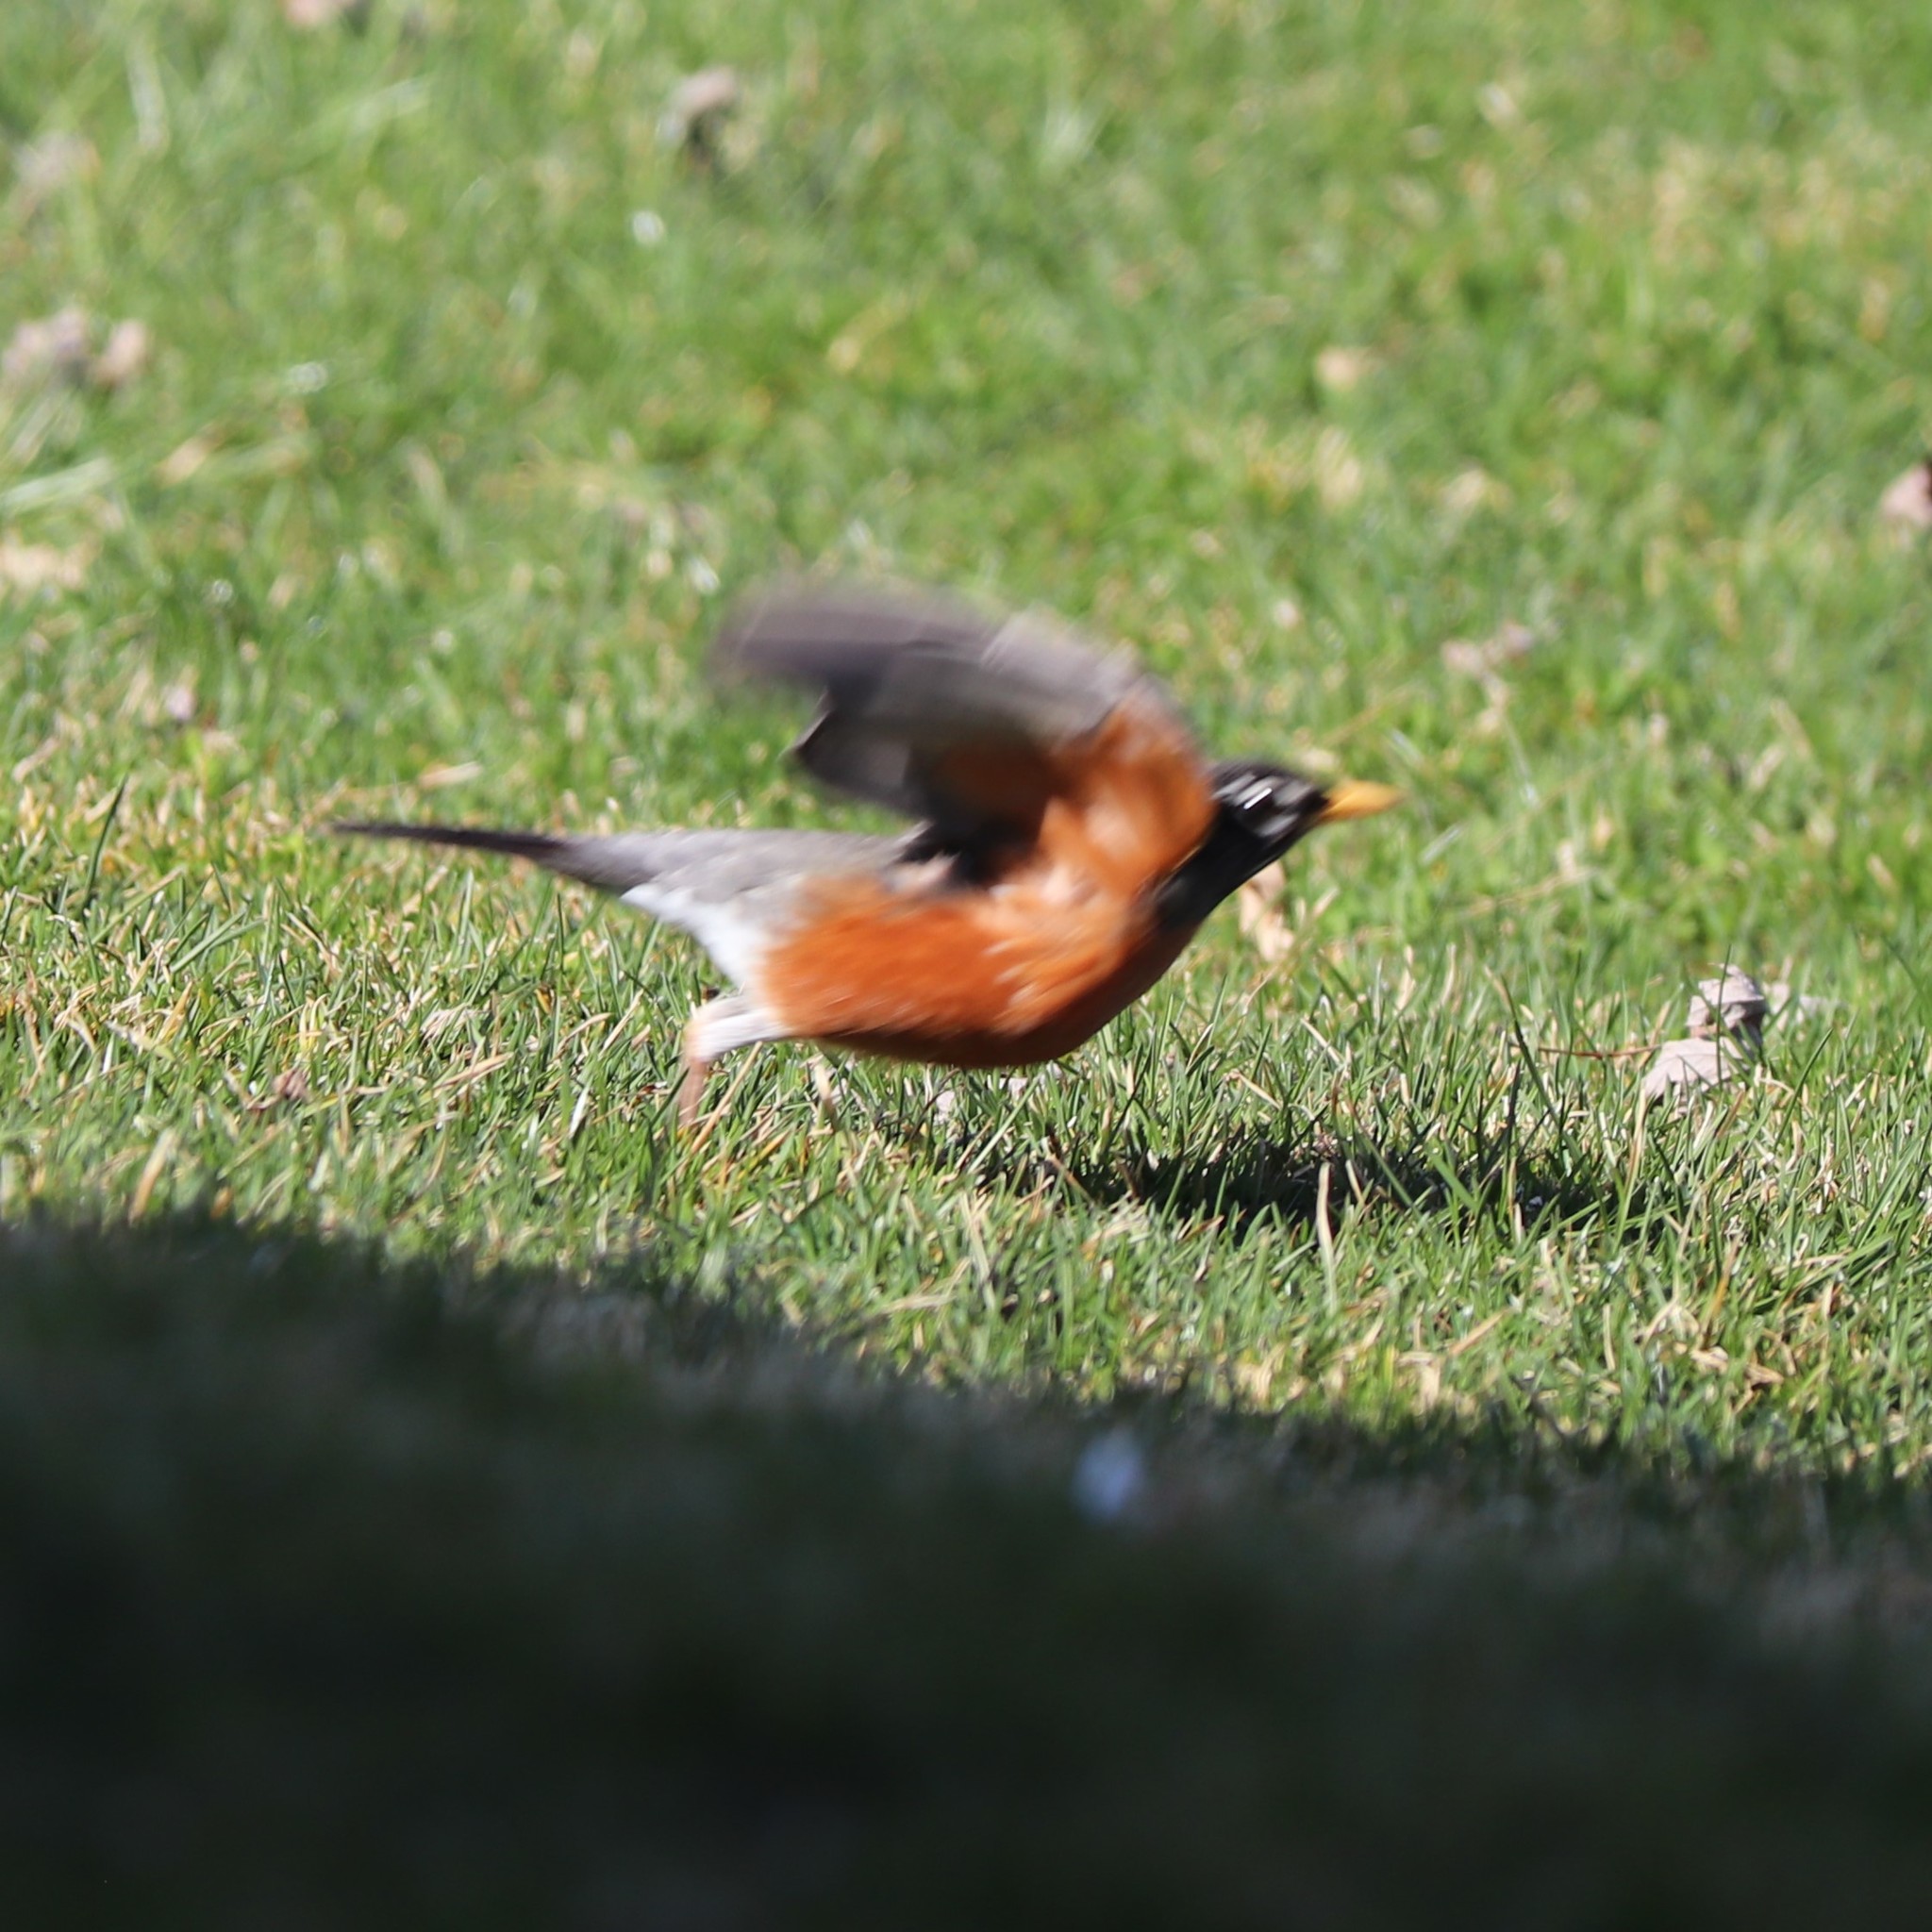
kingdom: Animalia
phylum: Chordata
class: Aves
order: Passeriformes
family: Turdidae
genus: Turdus
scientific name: Turdus migratorius
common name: American robin
